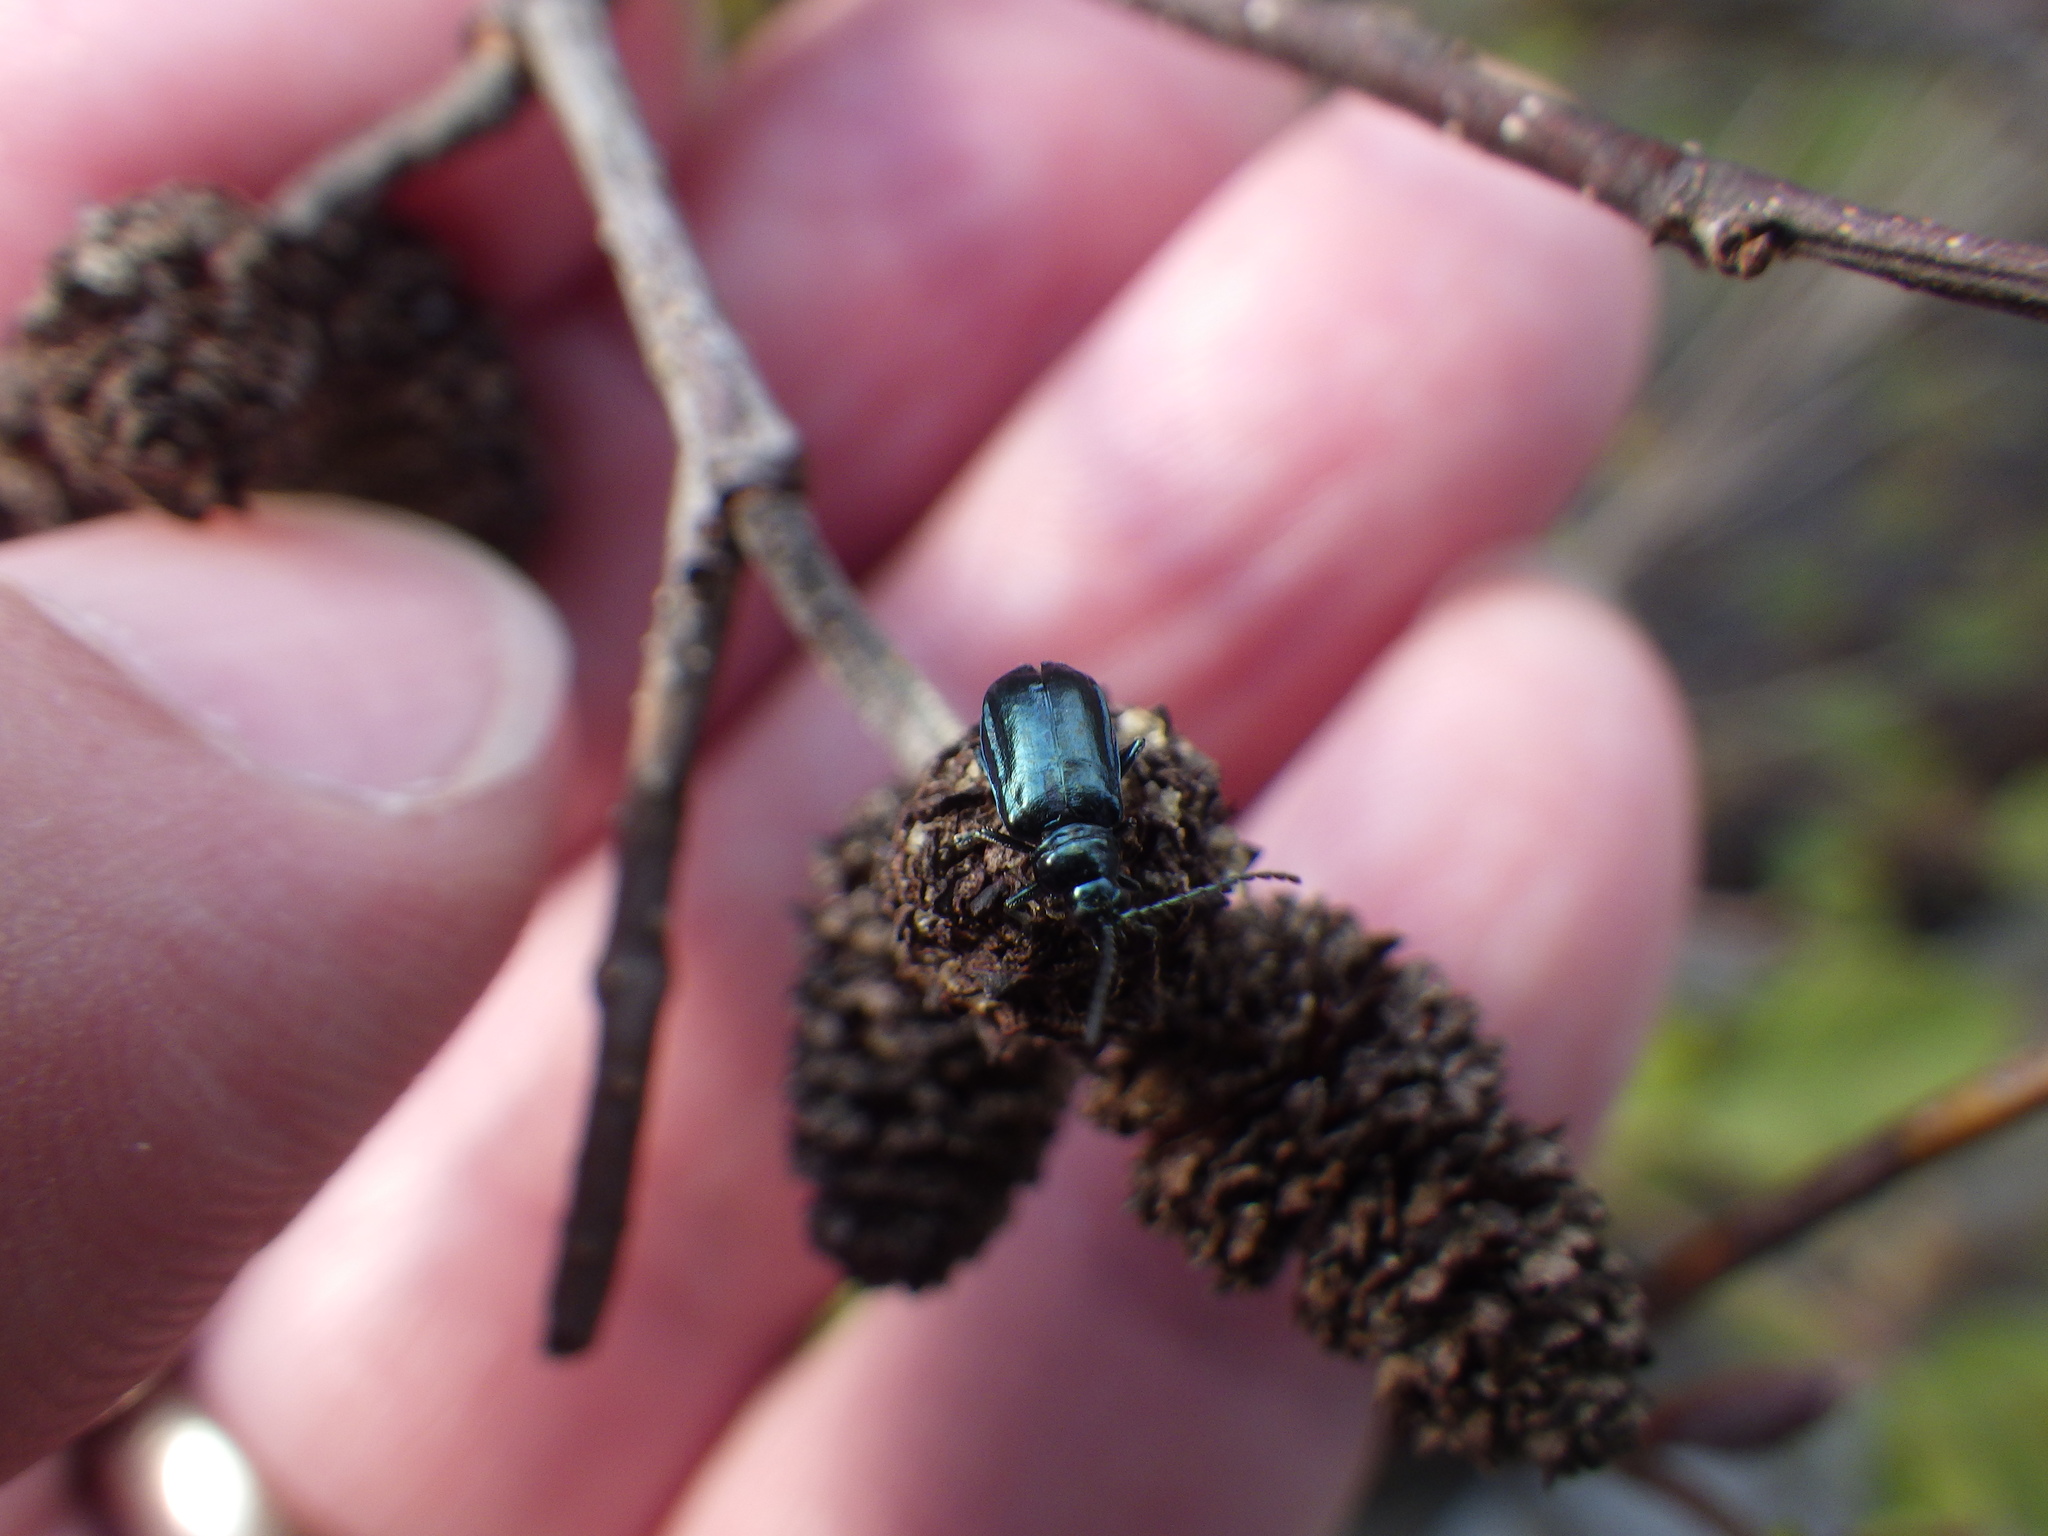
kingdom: Animalia
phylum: Arthropoda
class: Insecta
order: Coleoptera
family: Chrysomelidae
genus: Altica
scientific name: Altica ambiens
